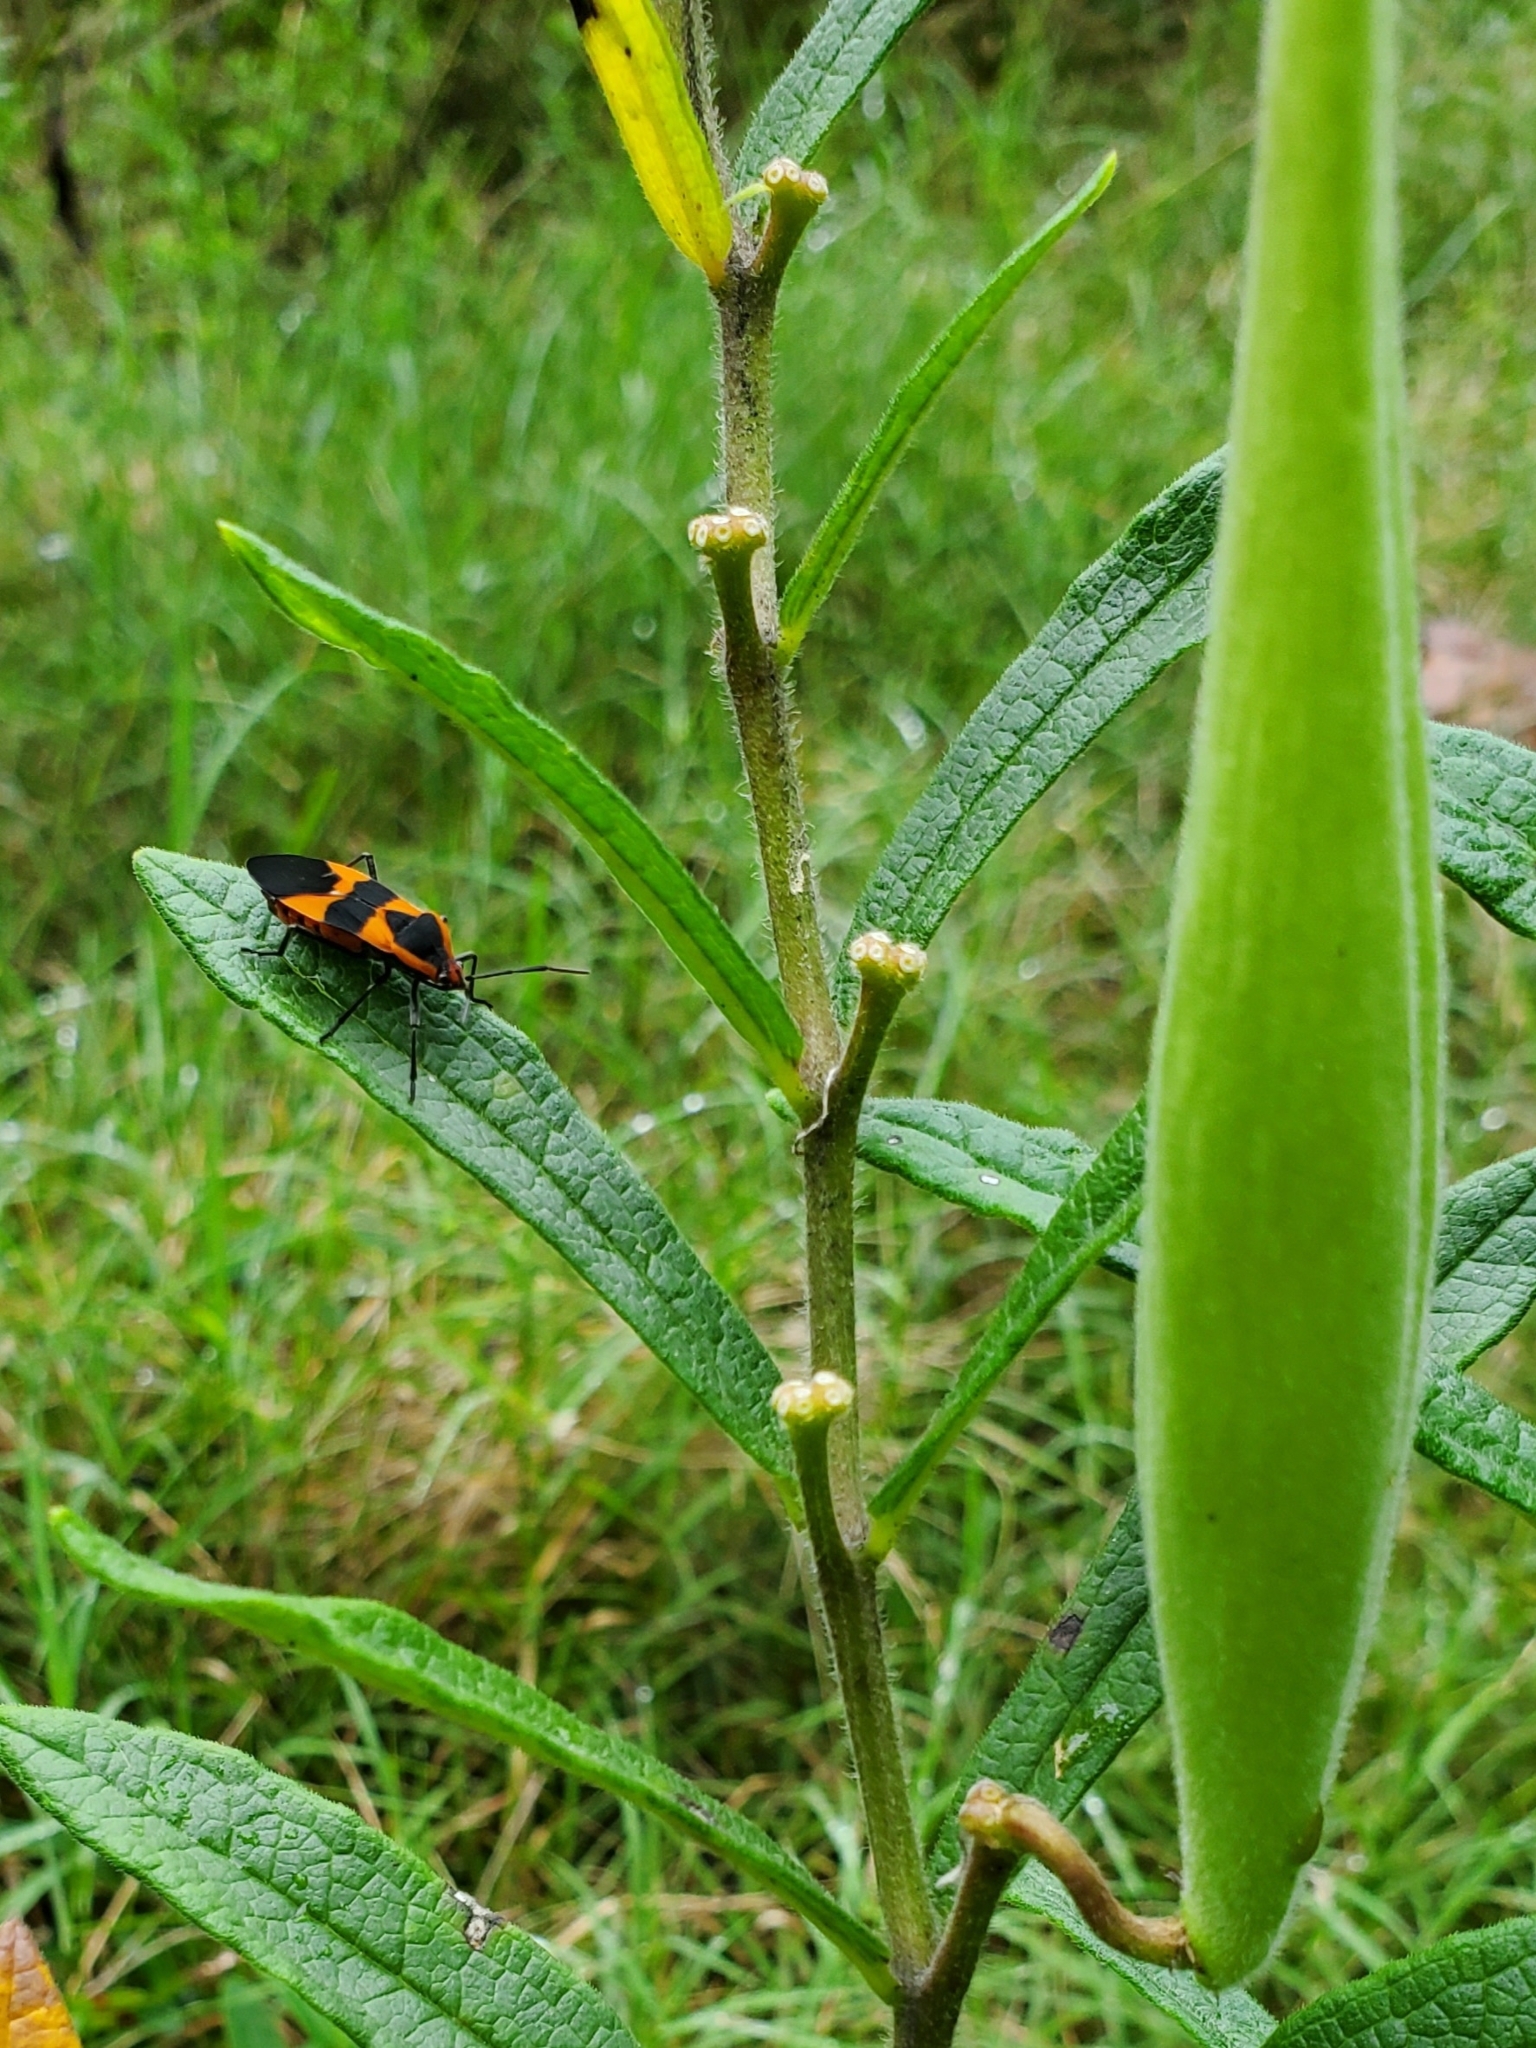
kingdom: Animalia
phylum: Arthropoda
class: Insecta
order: Hemiptera
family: Lygaeidae
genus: Oncopeltus
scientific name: Oncopeltus fasciatus
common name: Large milkweed bug
